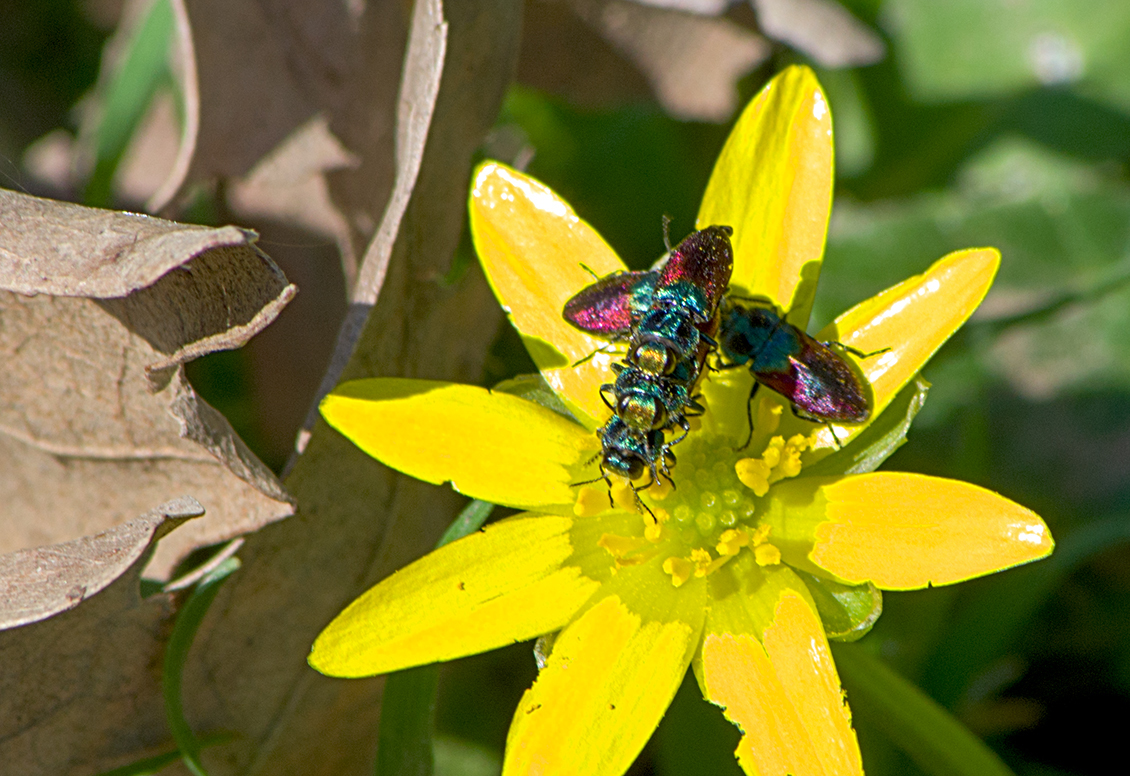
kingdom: Animalia
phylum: Arthropoda
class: Insecta
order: Coleoptera
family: Buprestidae
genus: Anthaxia
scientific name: Anthaxia salicis
